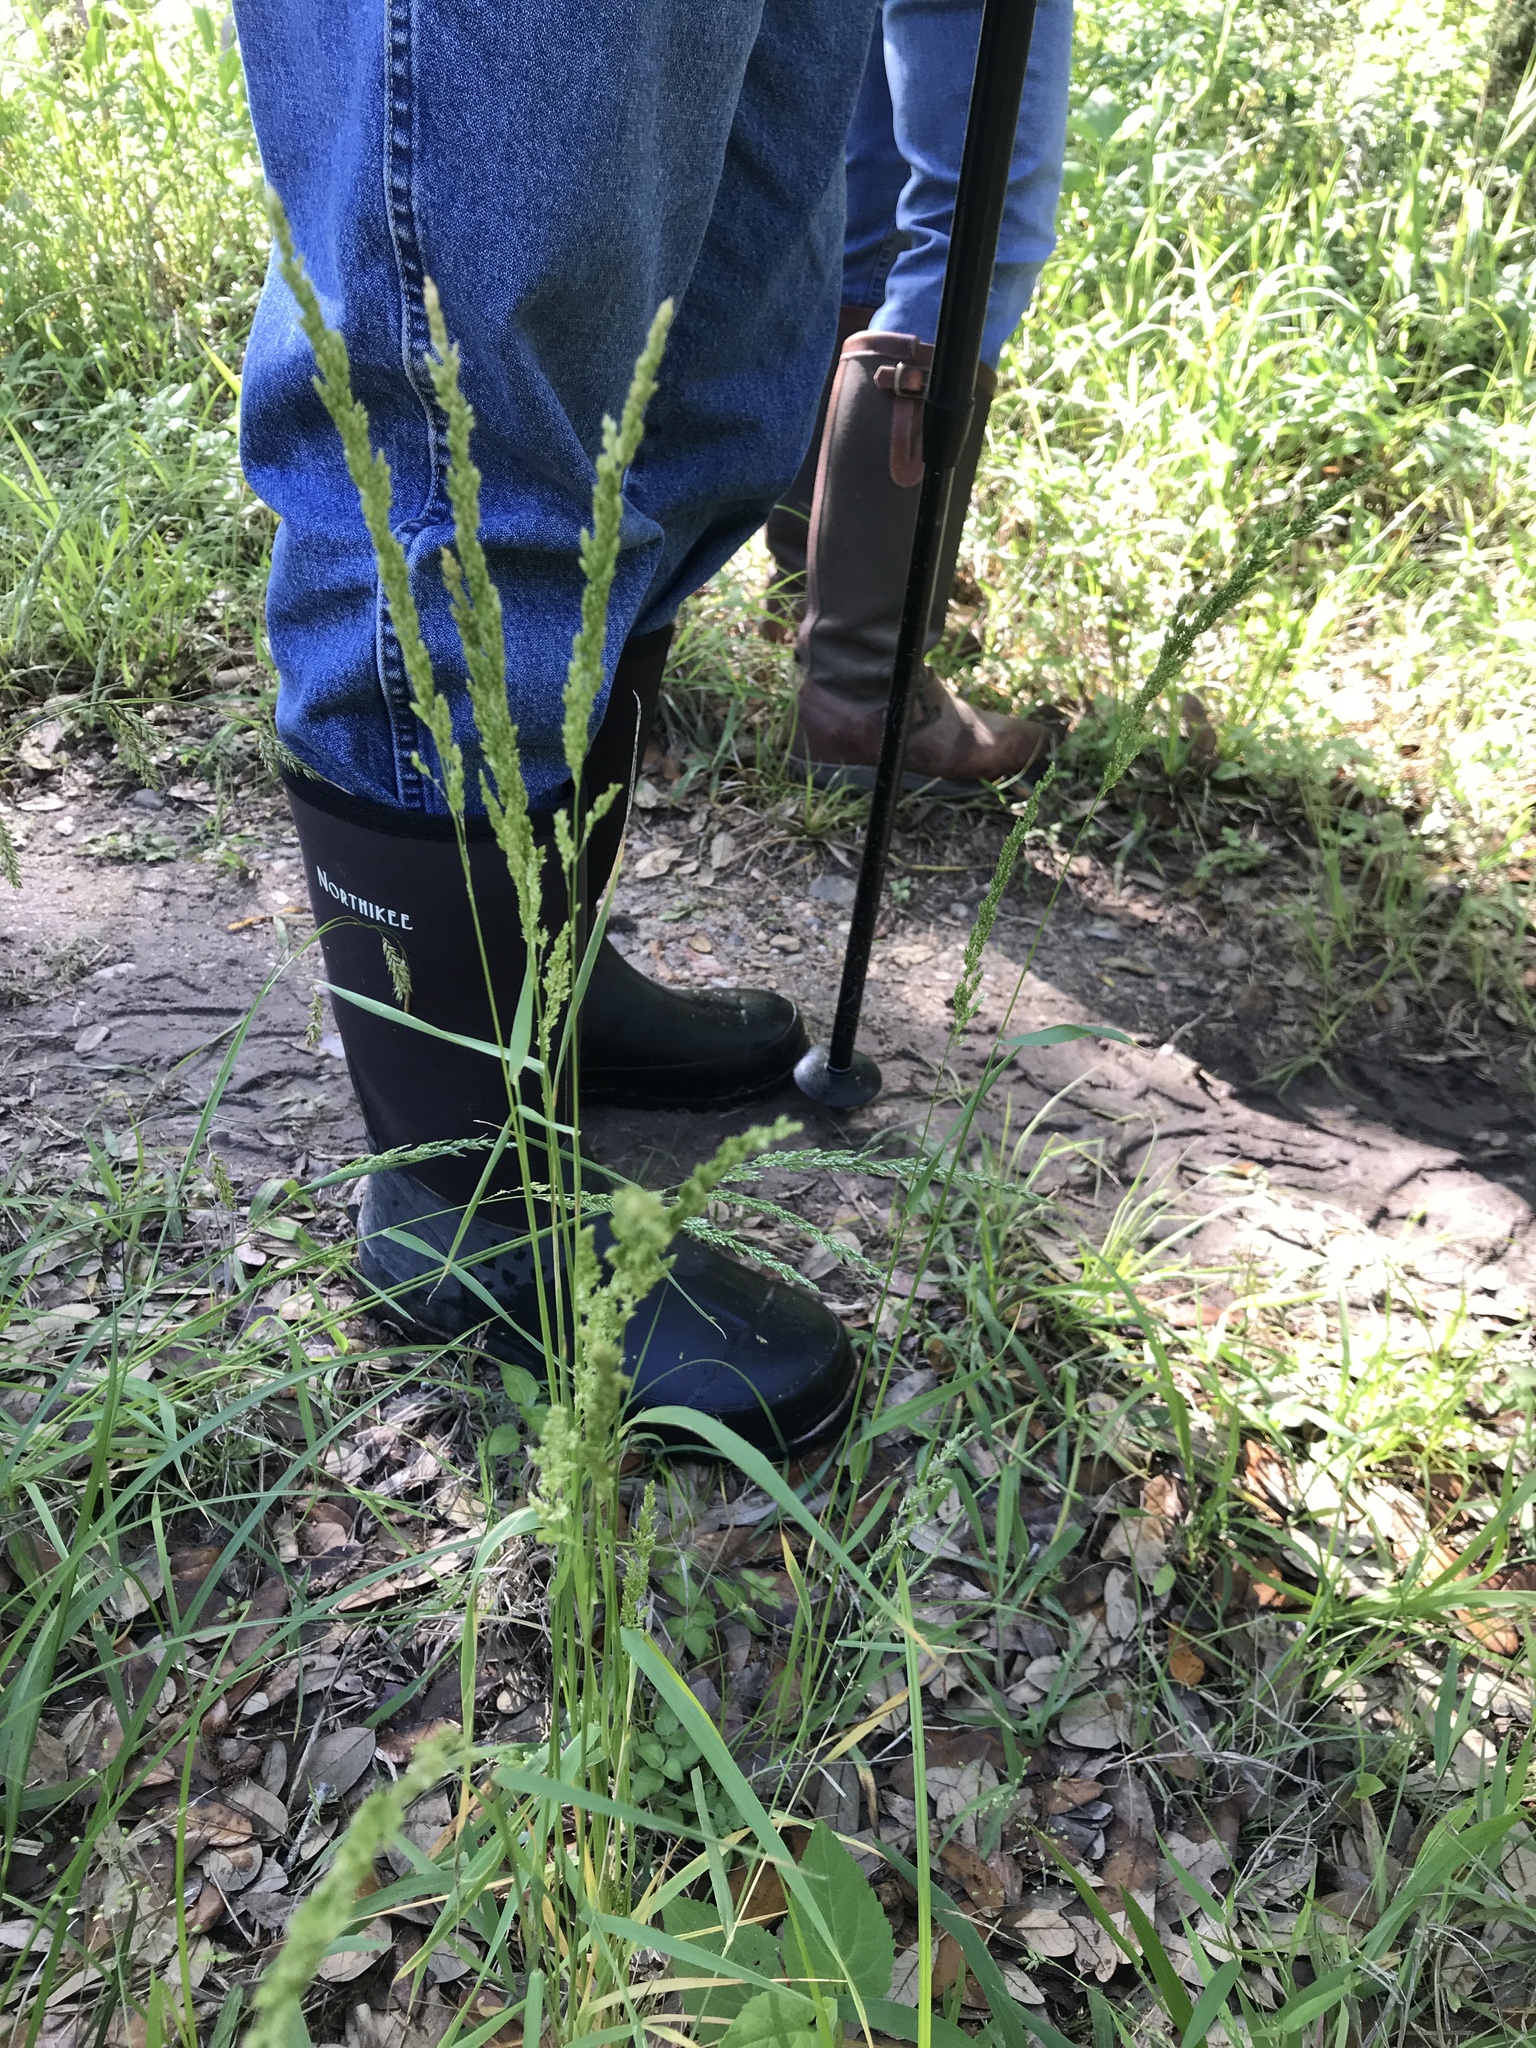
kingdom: Plantae
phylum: Tracheophyta
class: Liliopsida
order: Poales
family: Poaceae
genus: Sphenopholis
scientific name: Sphenopholis obtusata
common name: Prairie grass
